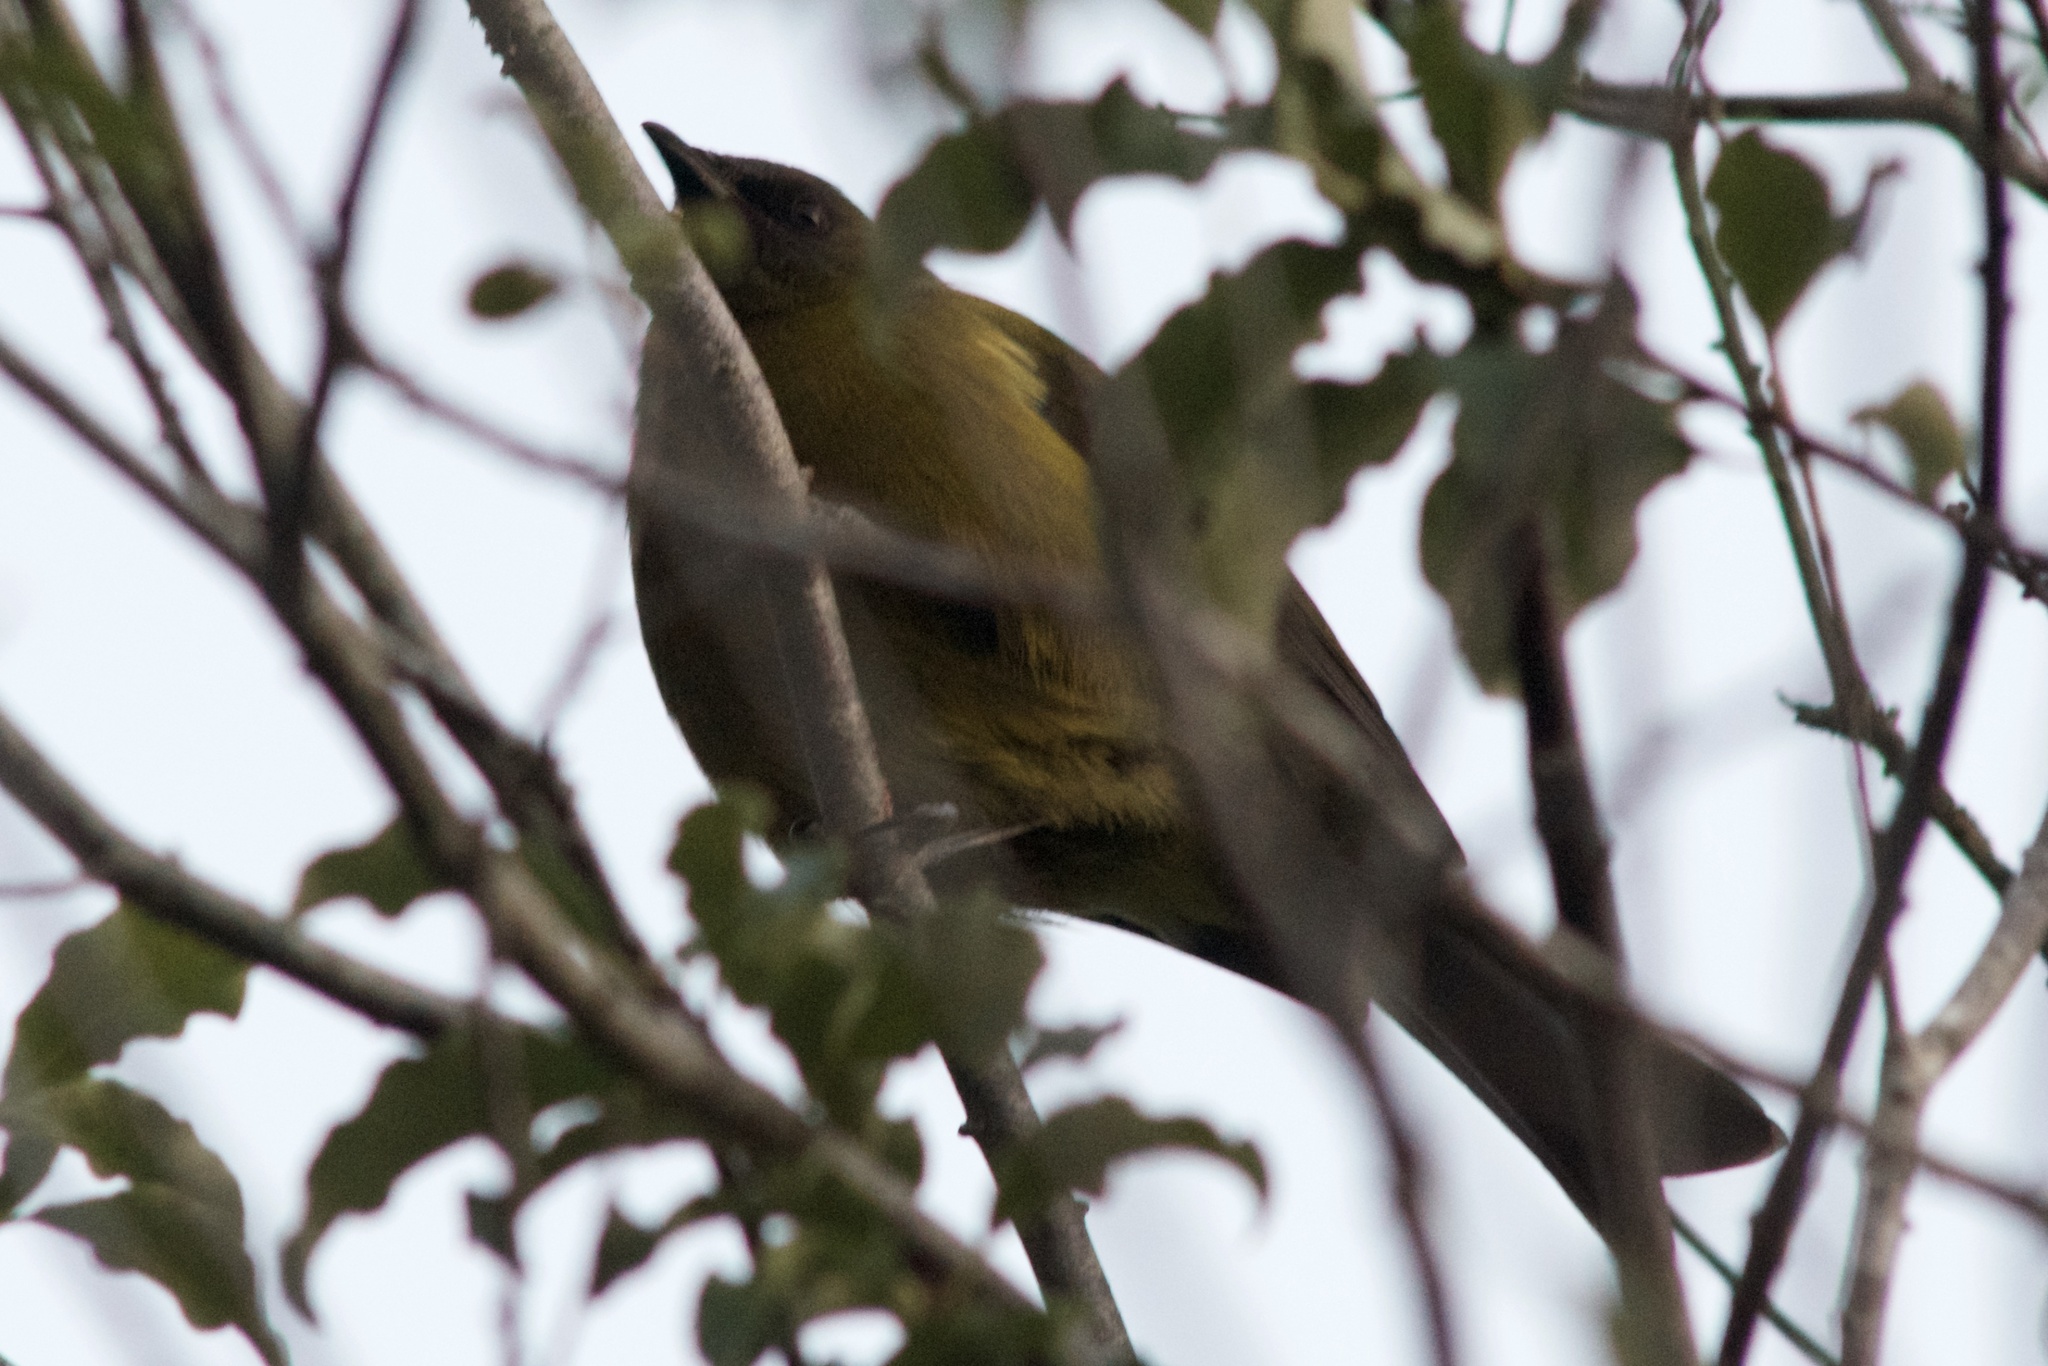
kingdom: Animalia
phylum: Chordata
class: Aves
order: Passeriformes
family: Meliphagidae
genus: Anthornis
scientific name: Anthornis melanura
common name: New zealand bellbird
